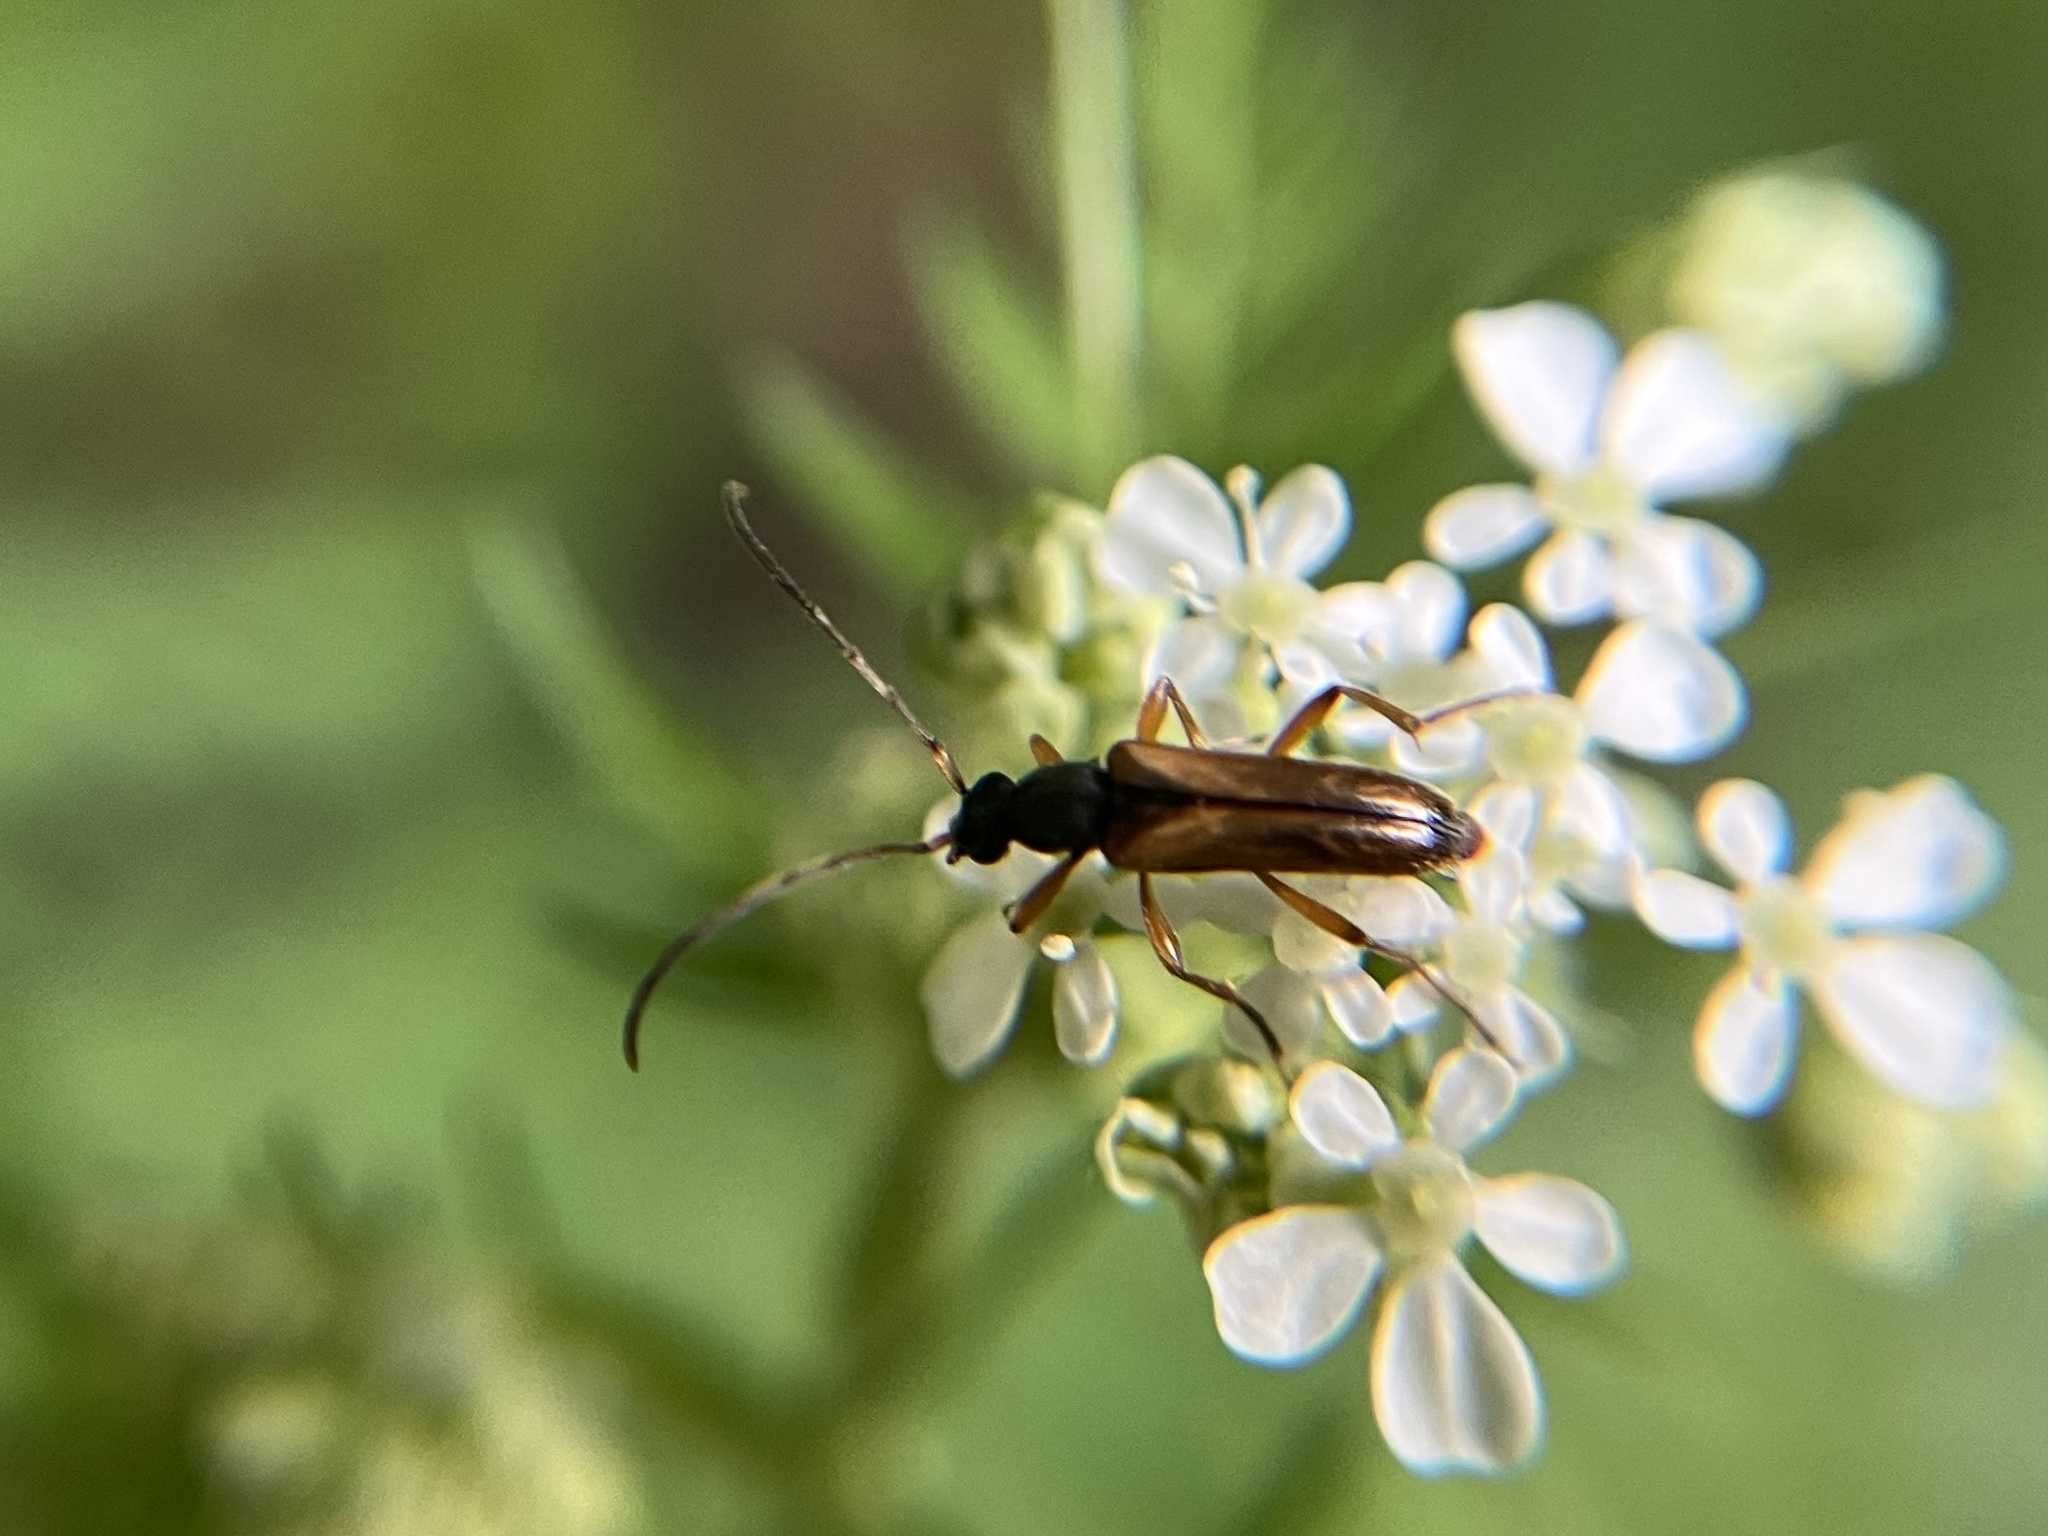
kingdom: Animalia
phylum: Arthropoda
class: Insecta
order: Coleoptera
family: Cerambycidae
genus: Alosterna
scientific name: Alosterna tabacicolor
